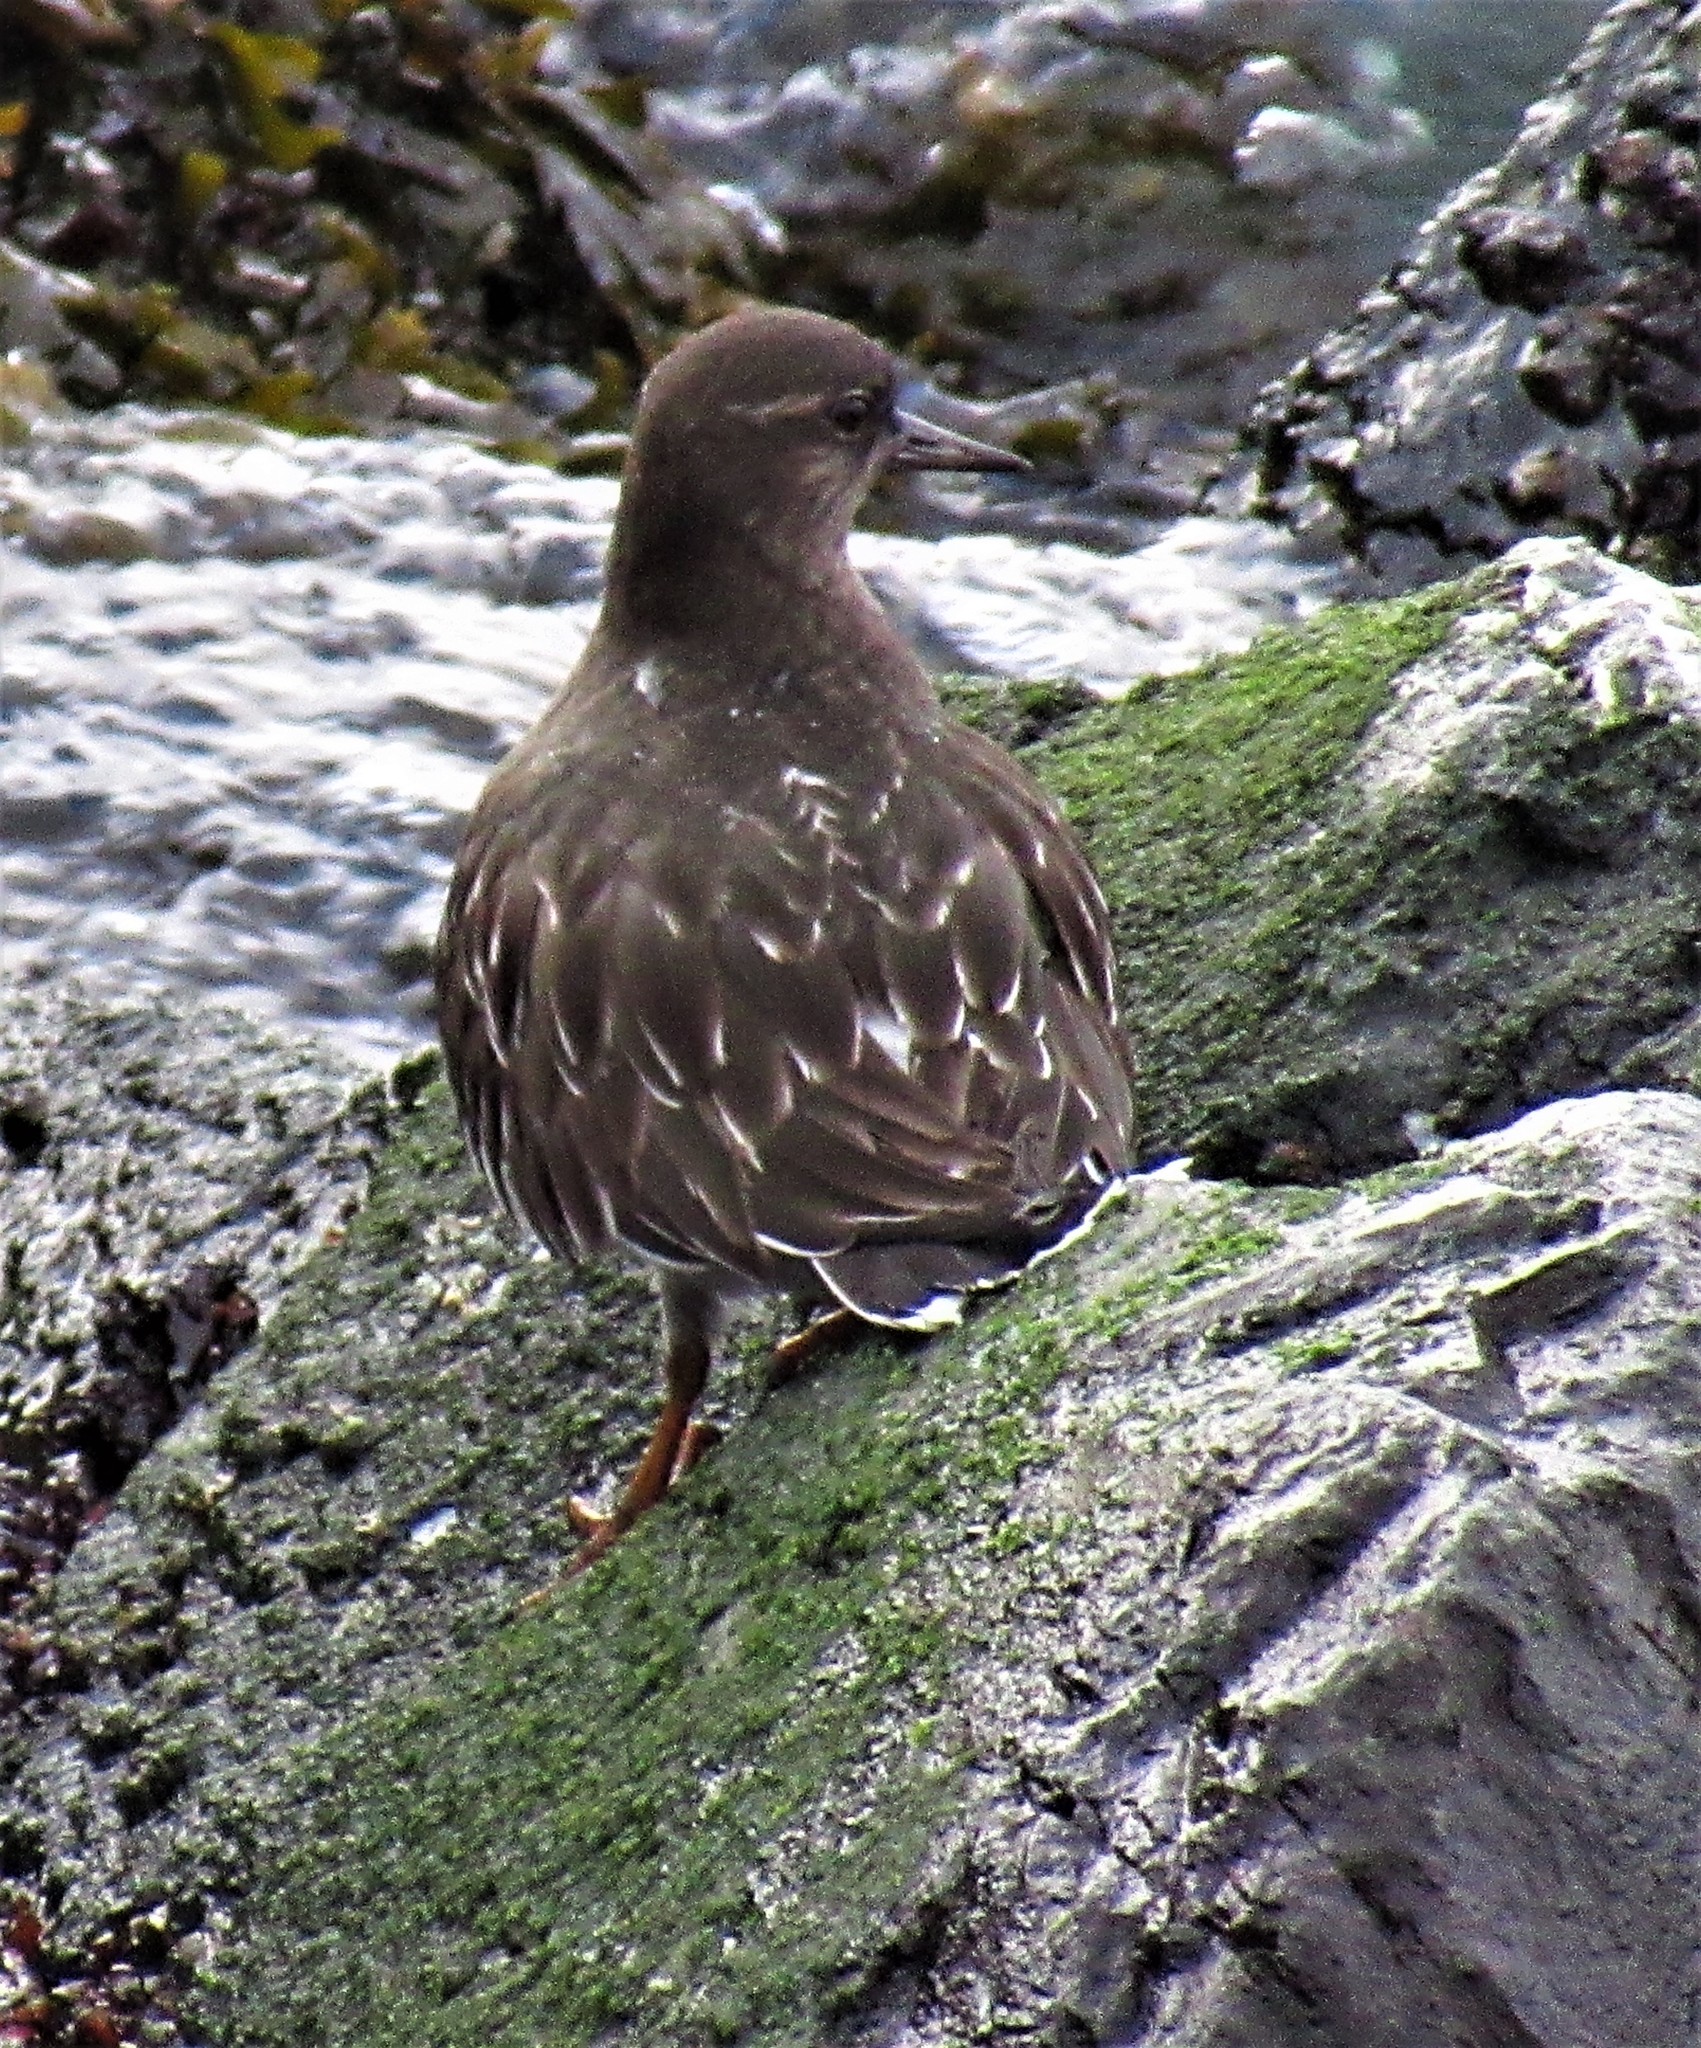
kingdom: Animalia
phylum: Chordata
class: Aves
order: Charadriiformes
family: Scolopacidae
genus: Arenaria
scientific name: Arenaria melanocephala
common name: Black turnstone
